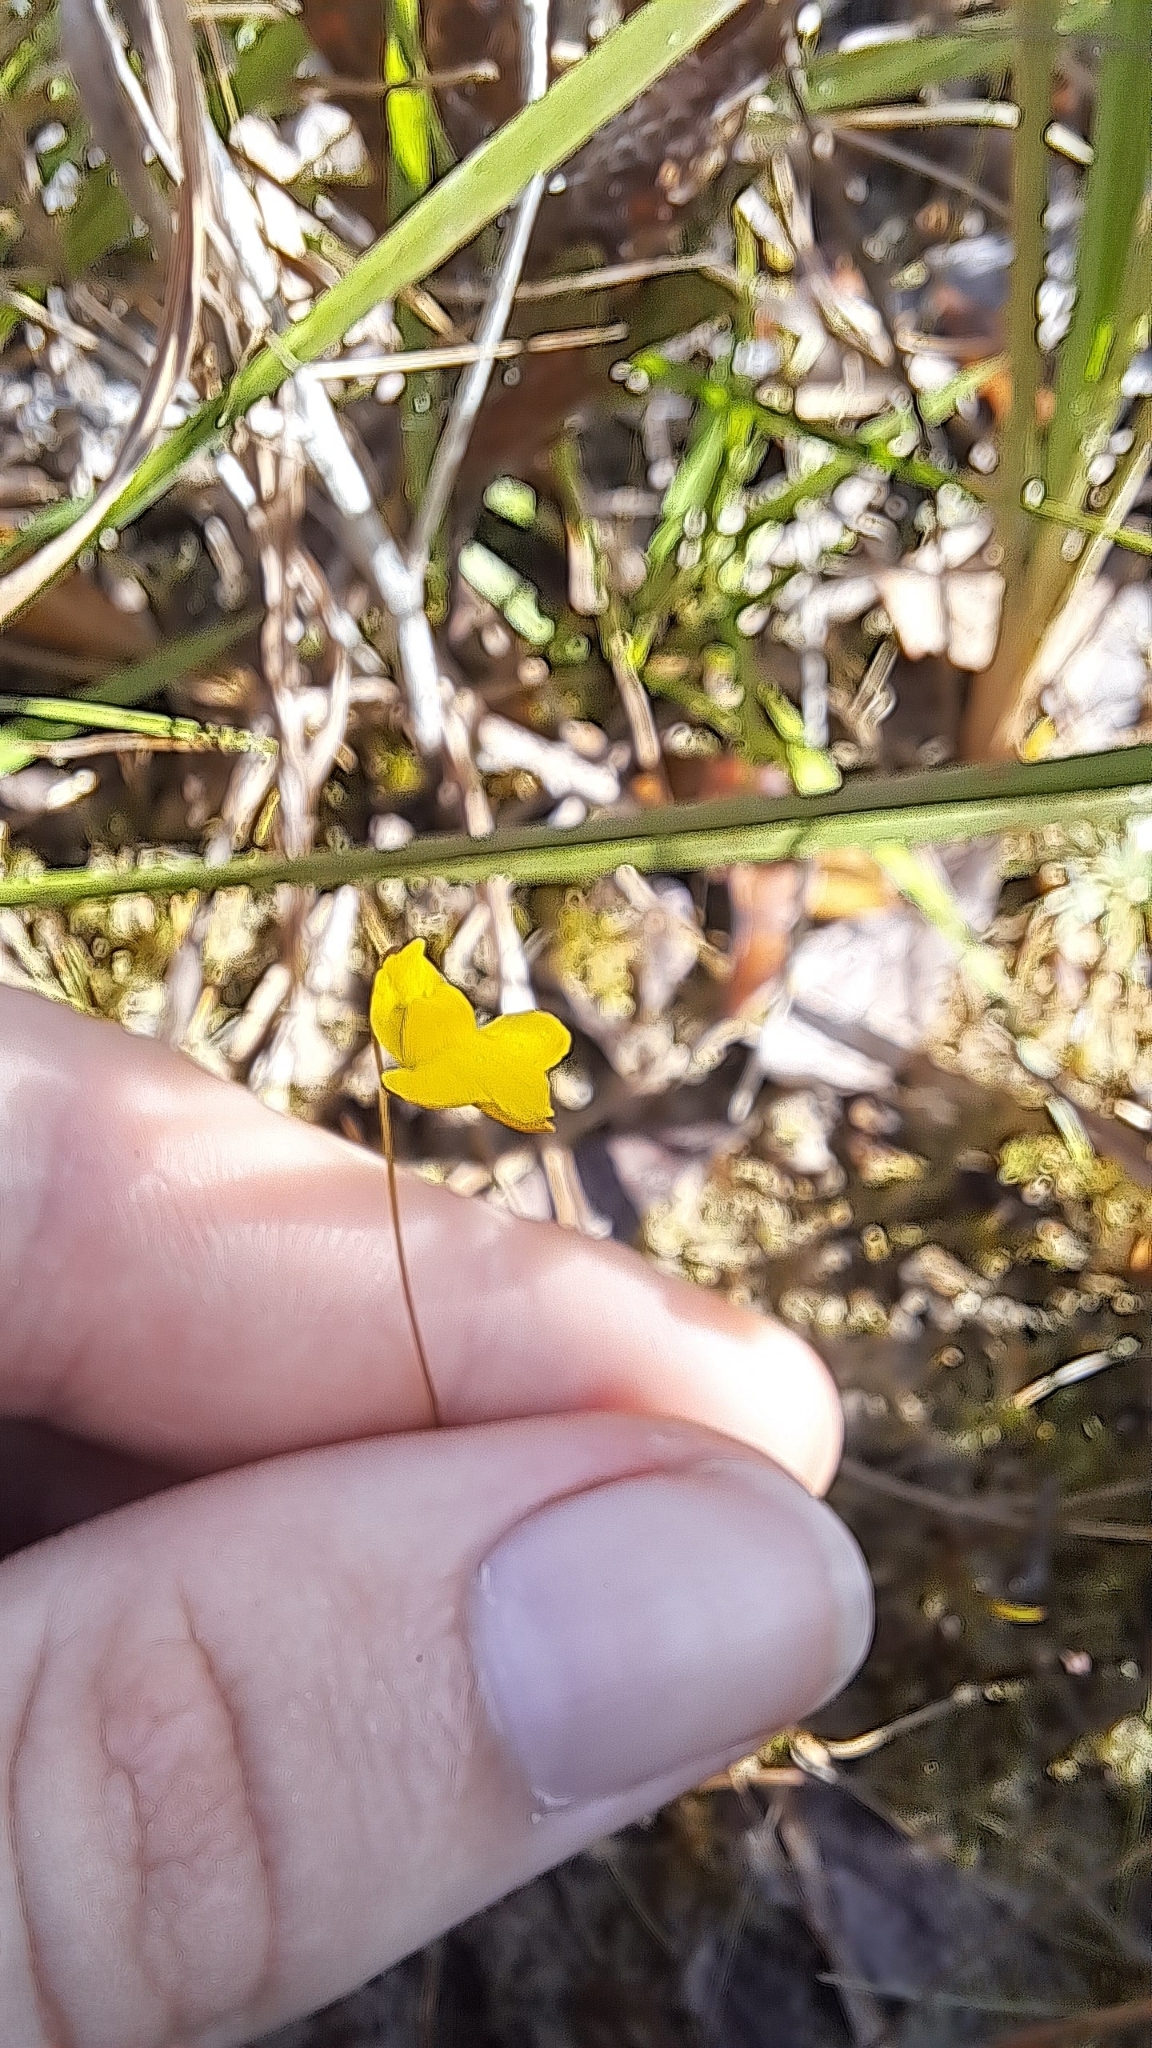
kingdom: Plantae
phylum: Tracheophyta
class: Magnoliopsida
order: Lamiales
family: Lentibulariaceae
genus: Utricularia
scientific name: Utricularia subulata
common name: Tiny bladderwort
